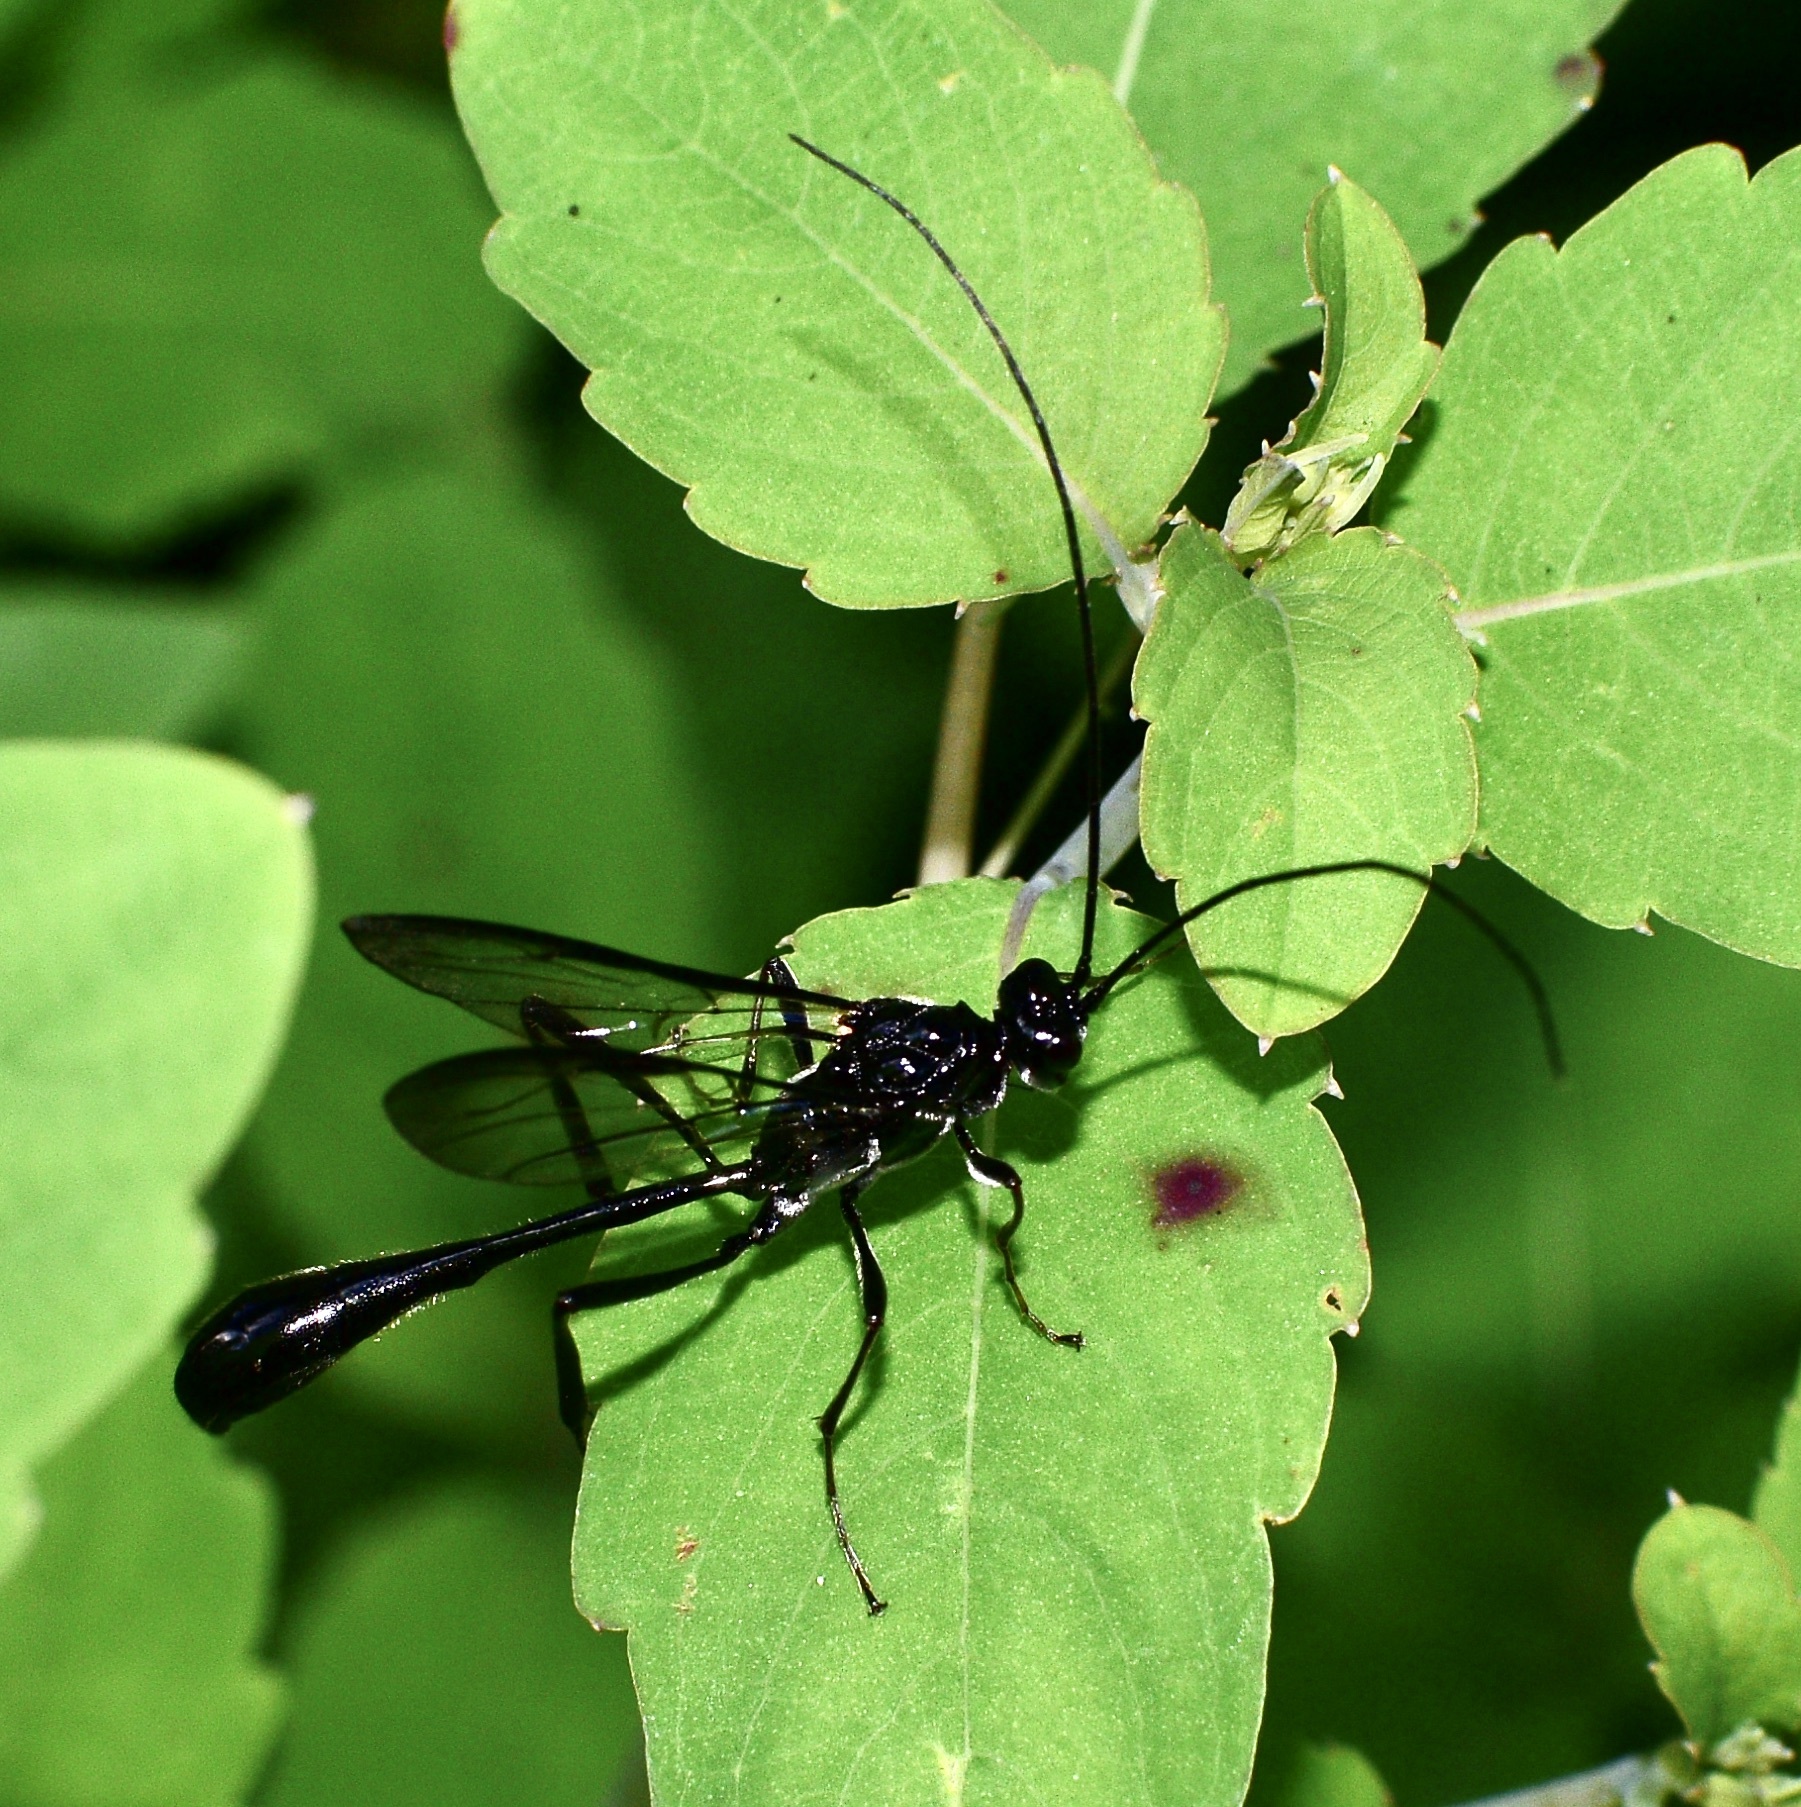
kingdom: Animalia
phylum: Arthropoda
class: Insecta
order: Hymenoptera
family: Pelecinidae
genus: Pelecinus
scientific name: Pelecinus polyturator
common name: American pelecinid wasp
